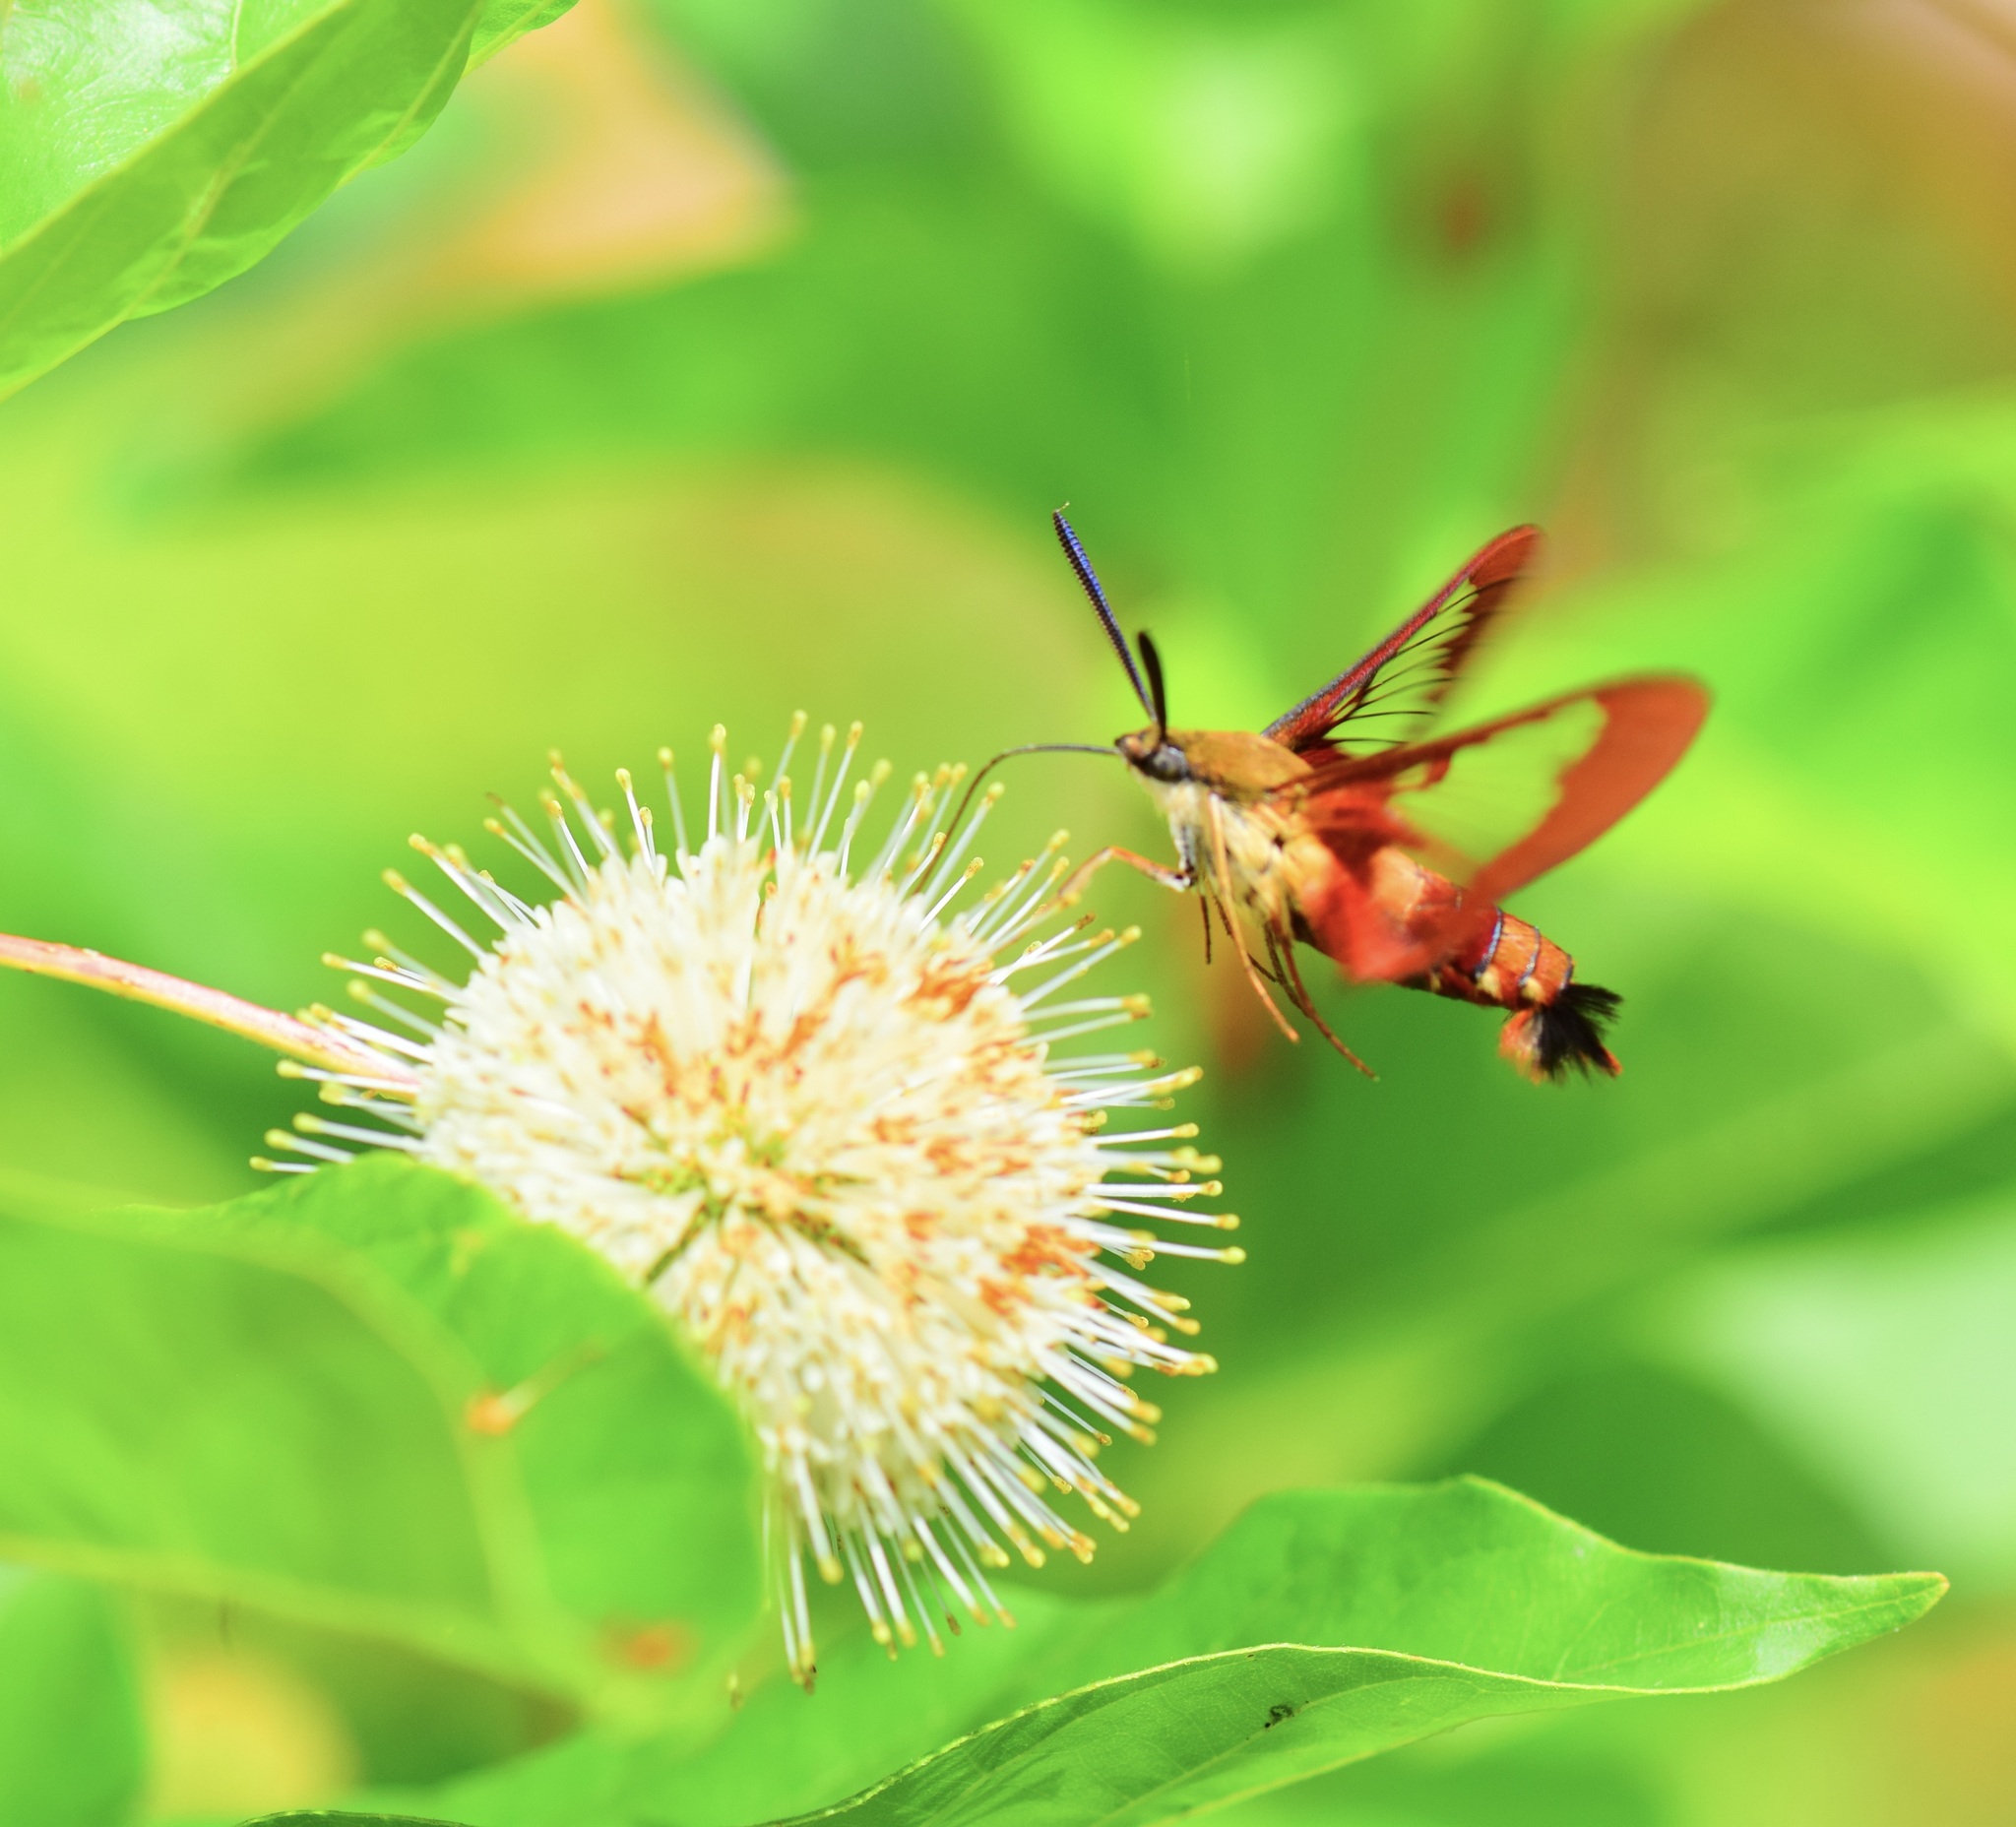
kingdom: Animalia
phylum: Arthropoda
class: Insecta
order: Lepidoptera
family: Sphingidae
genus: Hemaris
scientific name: Hemaris thysbe
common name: Common clear-wing
